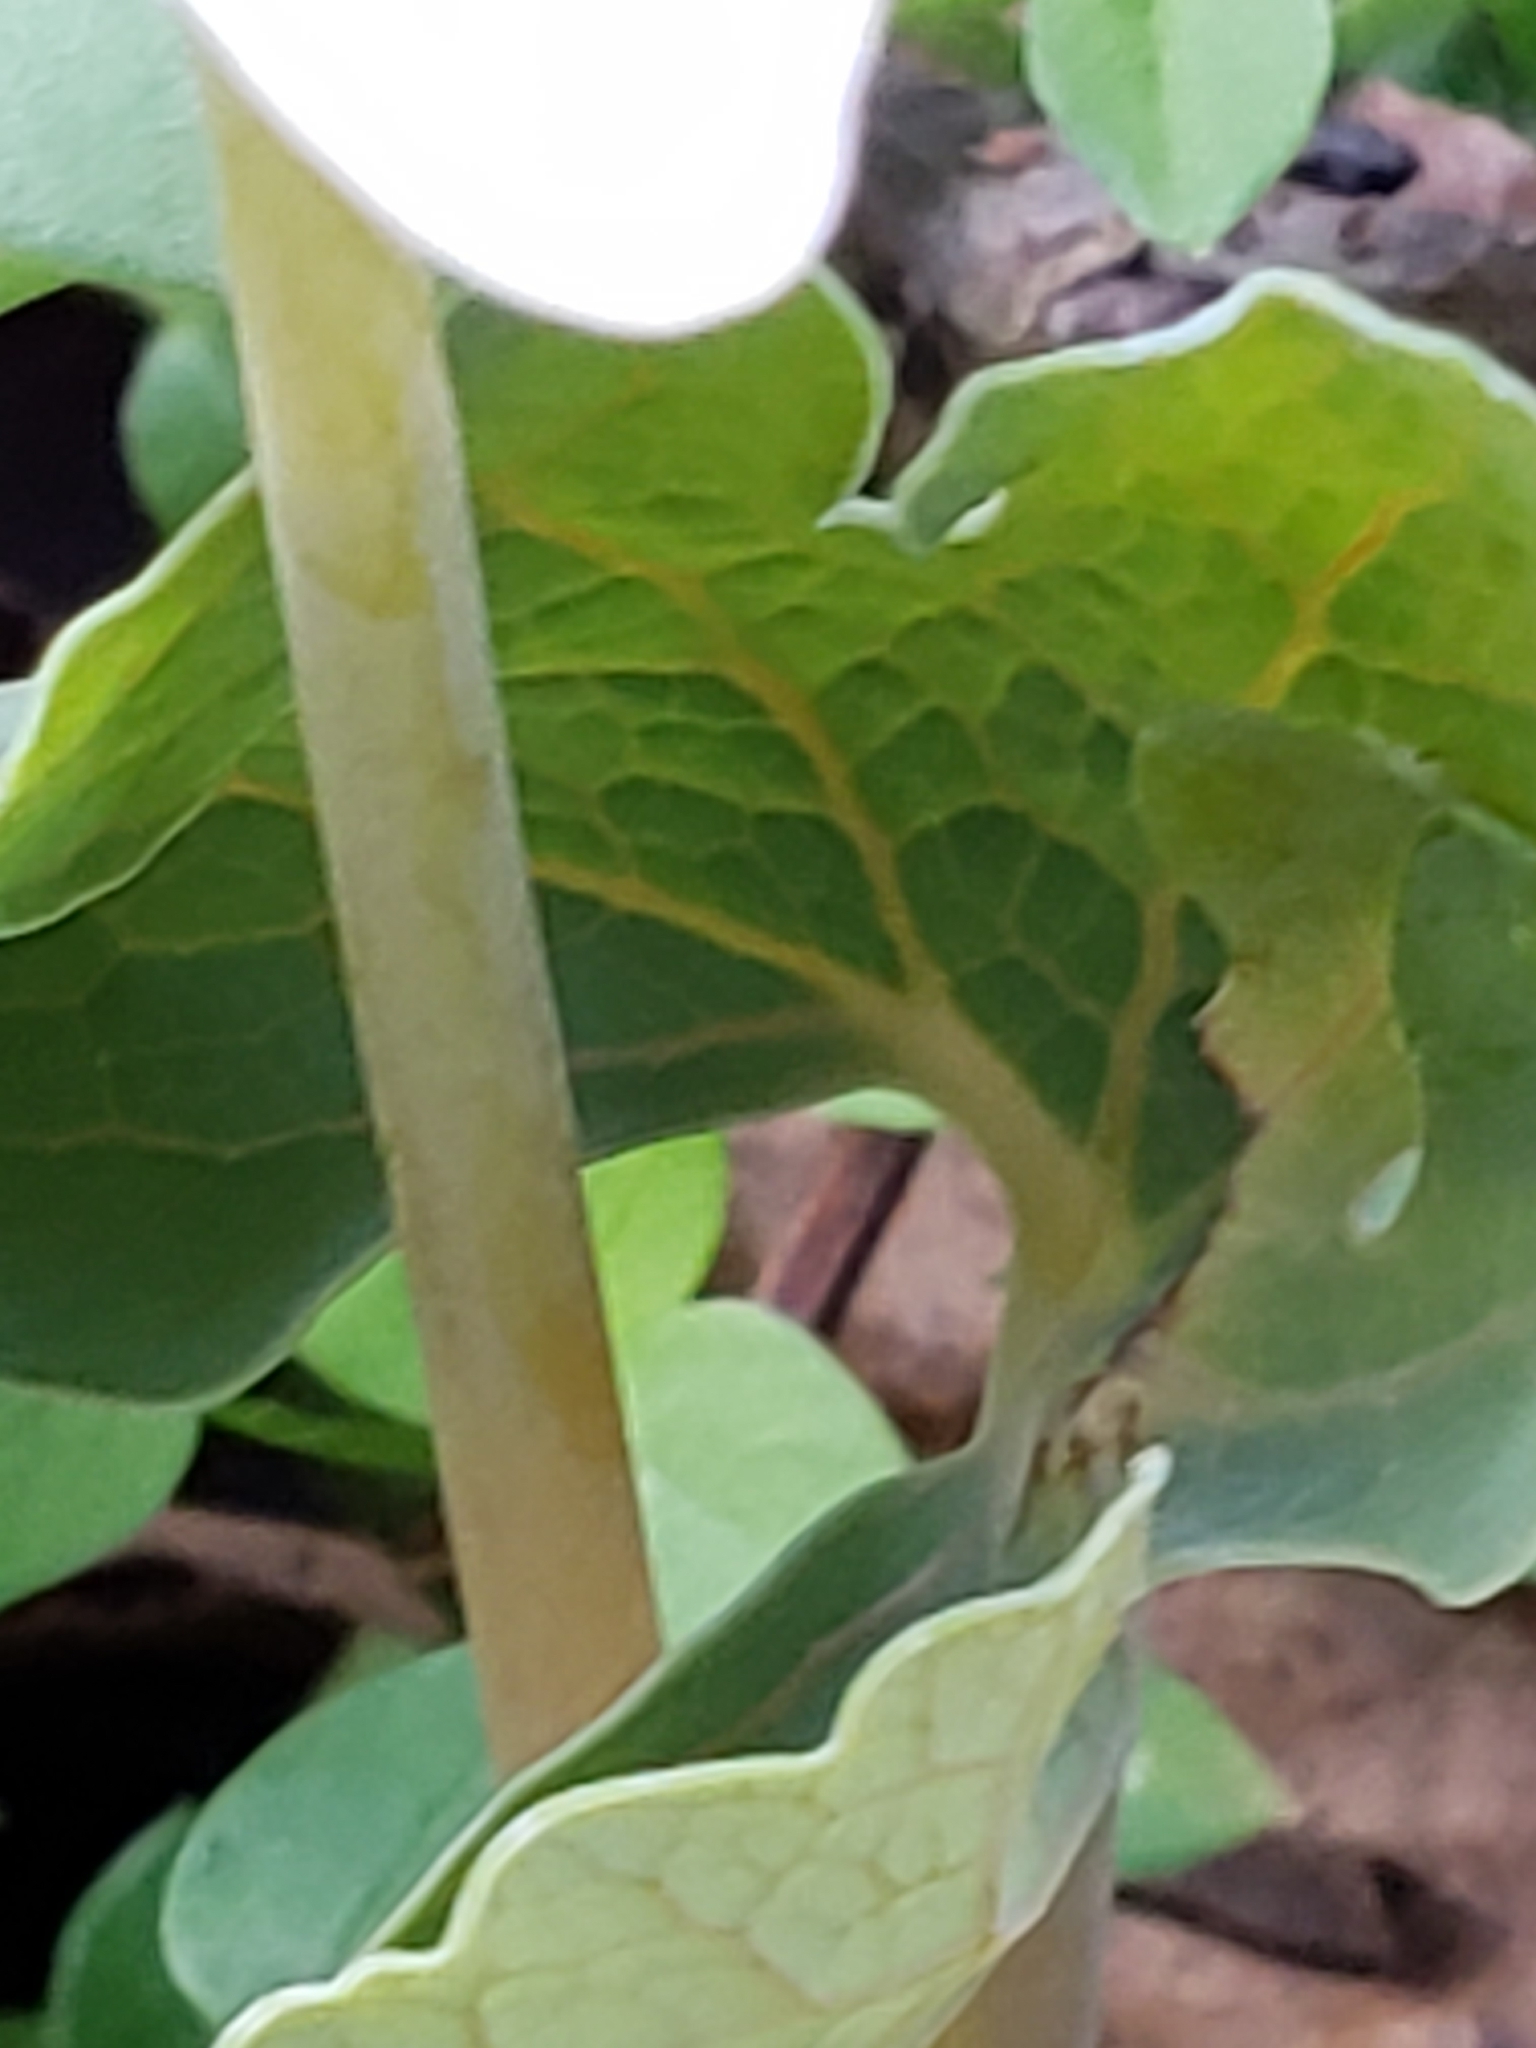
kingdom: Plantae
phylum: Tracheophyta
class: Magnoliopsida
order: Ranunculales
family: Papaveraceae
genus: Sanguinaria
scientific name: Sanguinaria canadensis
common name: Bloodroot
